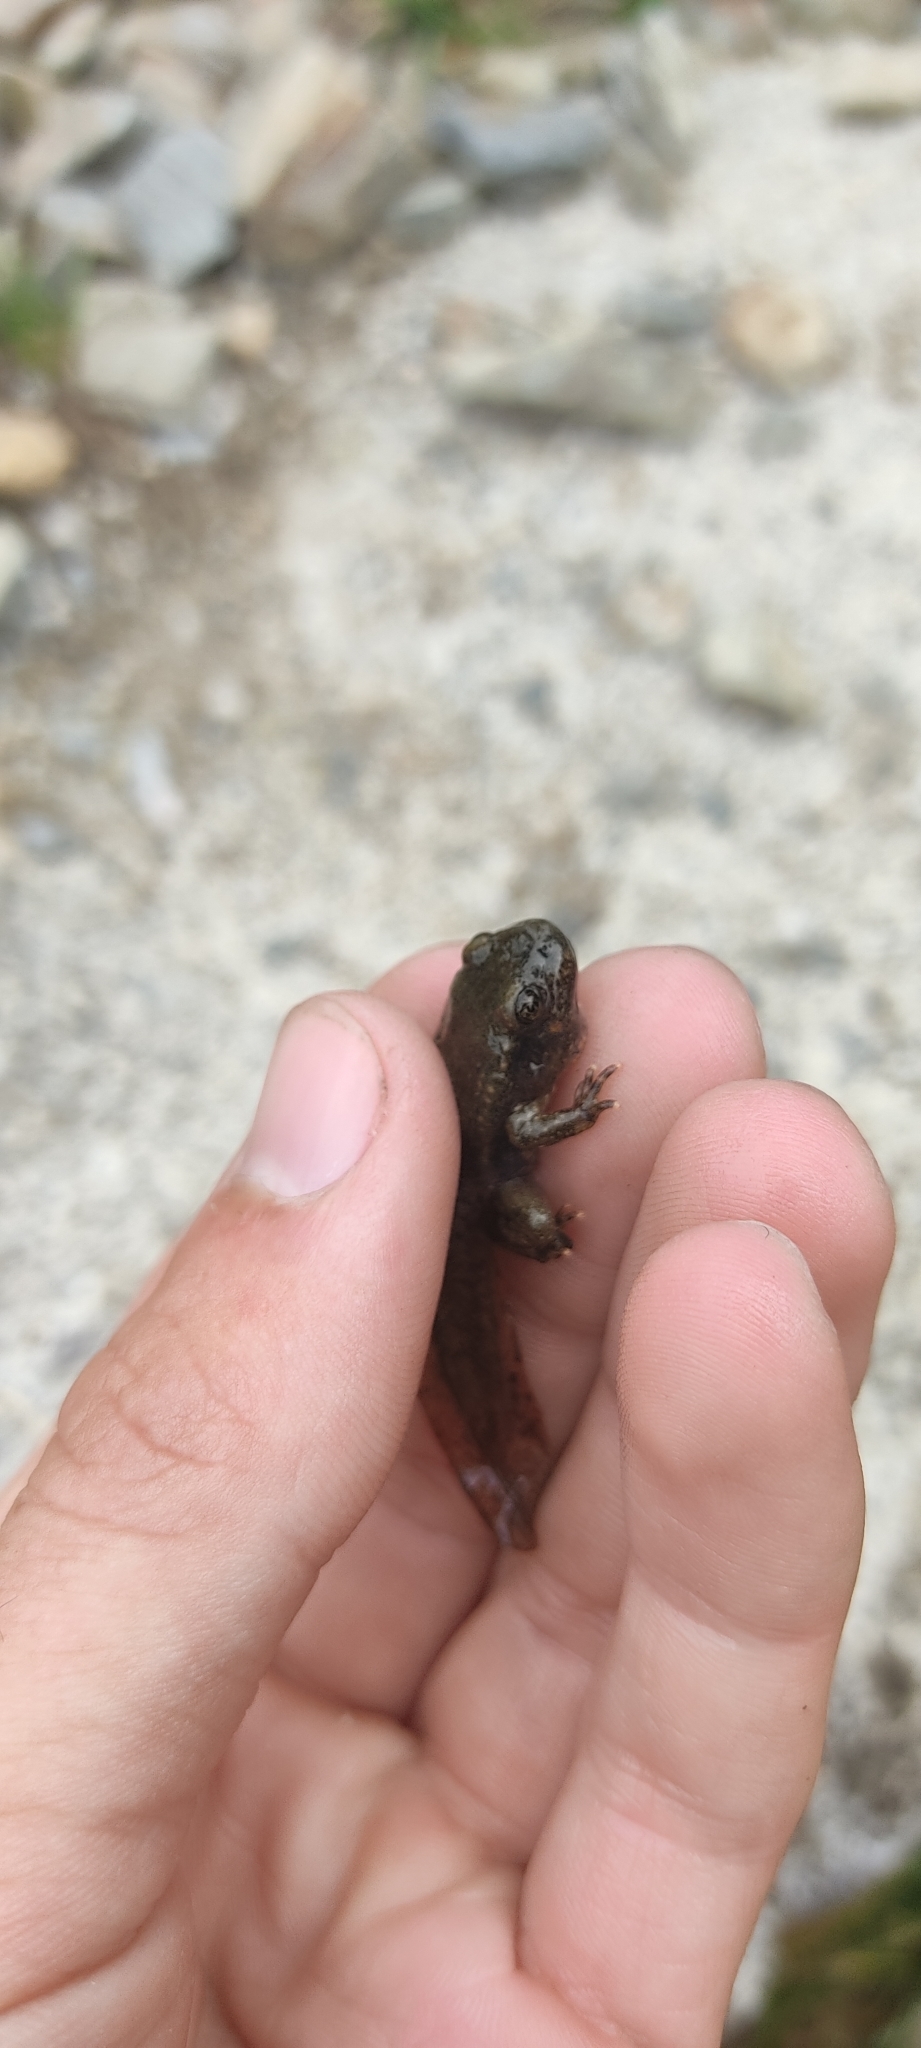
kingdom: Animalia
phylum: Chordata
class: Amphibia
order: Anura
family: Alytidae
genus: Alytes
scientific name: Alytes obstetricans
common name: Midwife toad
